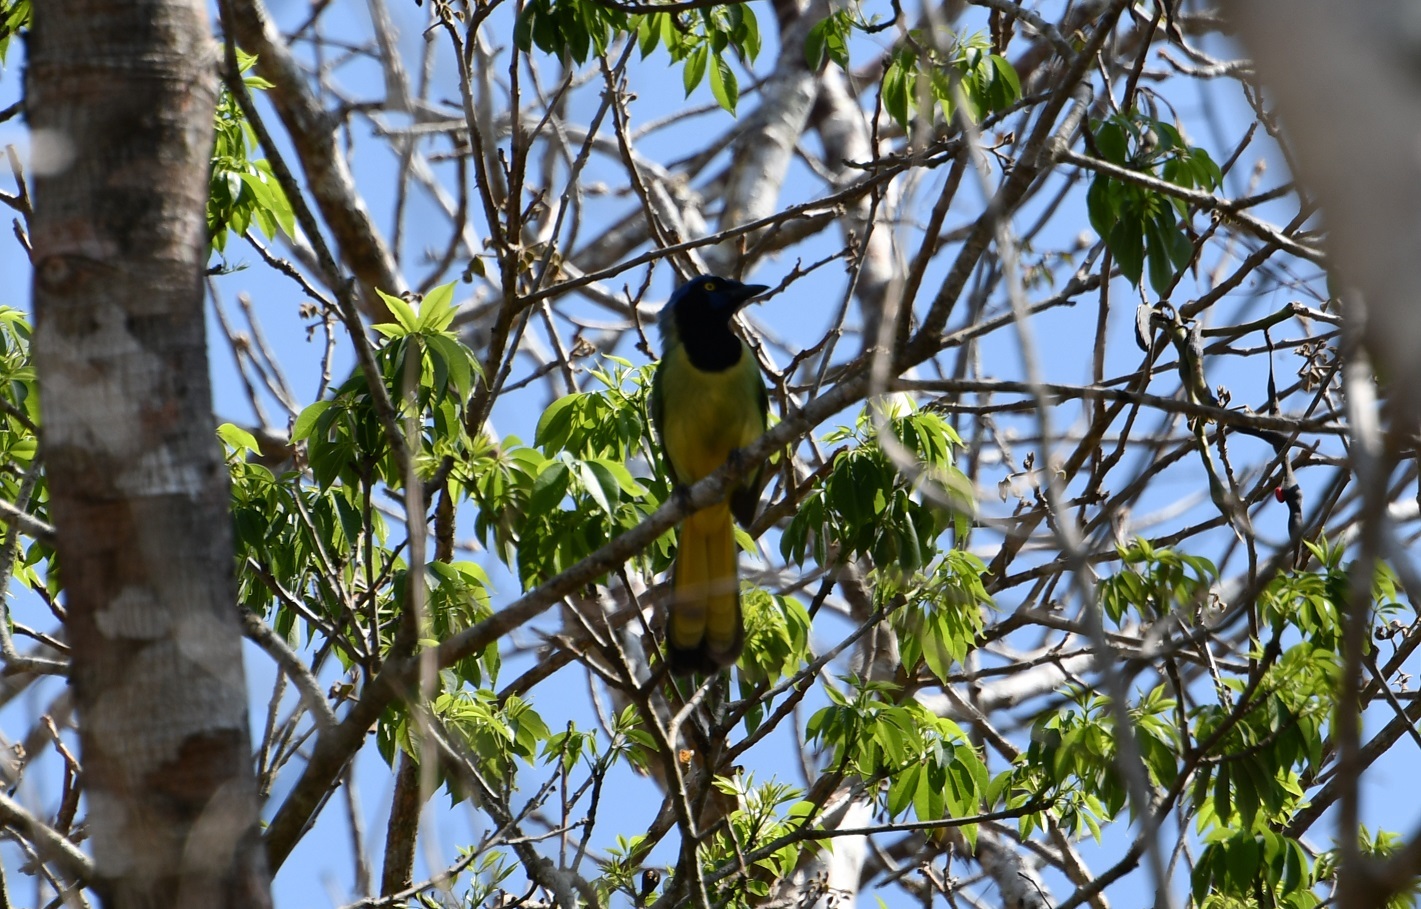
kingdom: Animalia
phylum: Chordata
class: Aves
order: Passeriformes
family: Corvidae
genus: Cyanocorax
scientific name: Cyanocorax yncas
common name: Green jay
